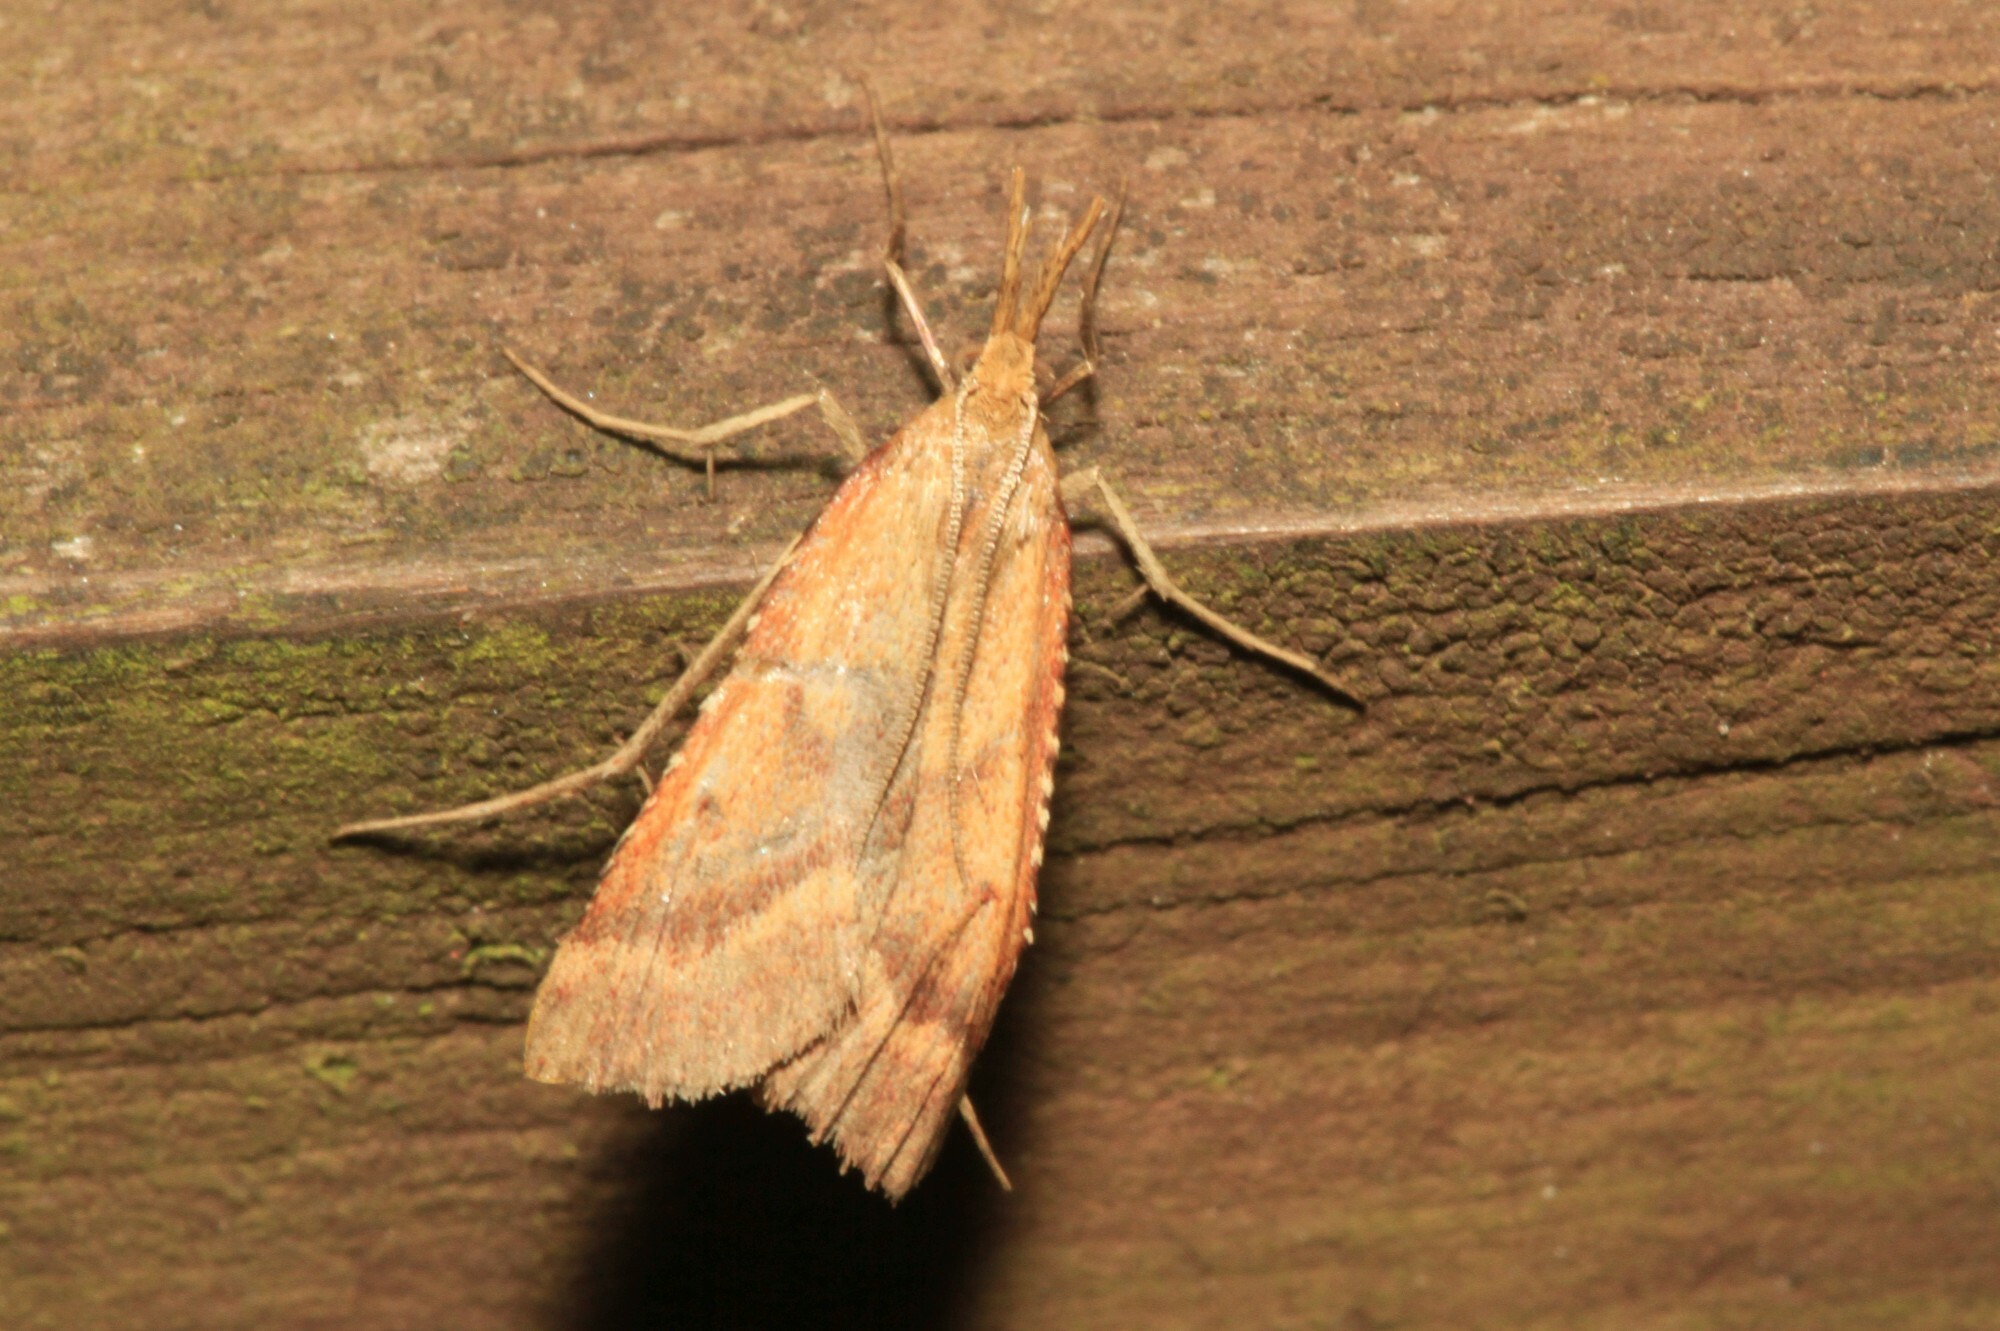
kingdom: Animalia
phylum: Arthropoda
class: Insecta
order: Lepidoptera
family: Pyralidae
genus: Synaphe
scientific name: Synaphe punctalis
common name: Long-legged tabby
